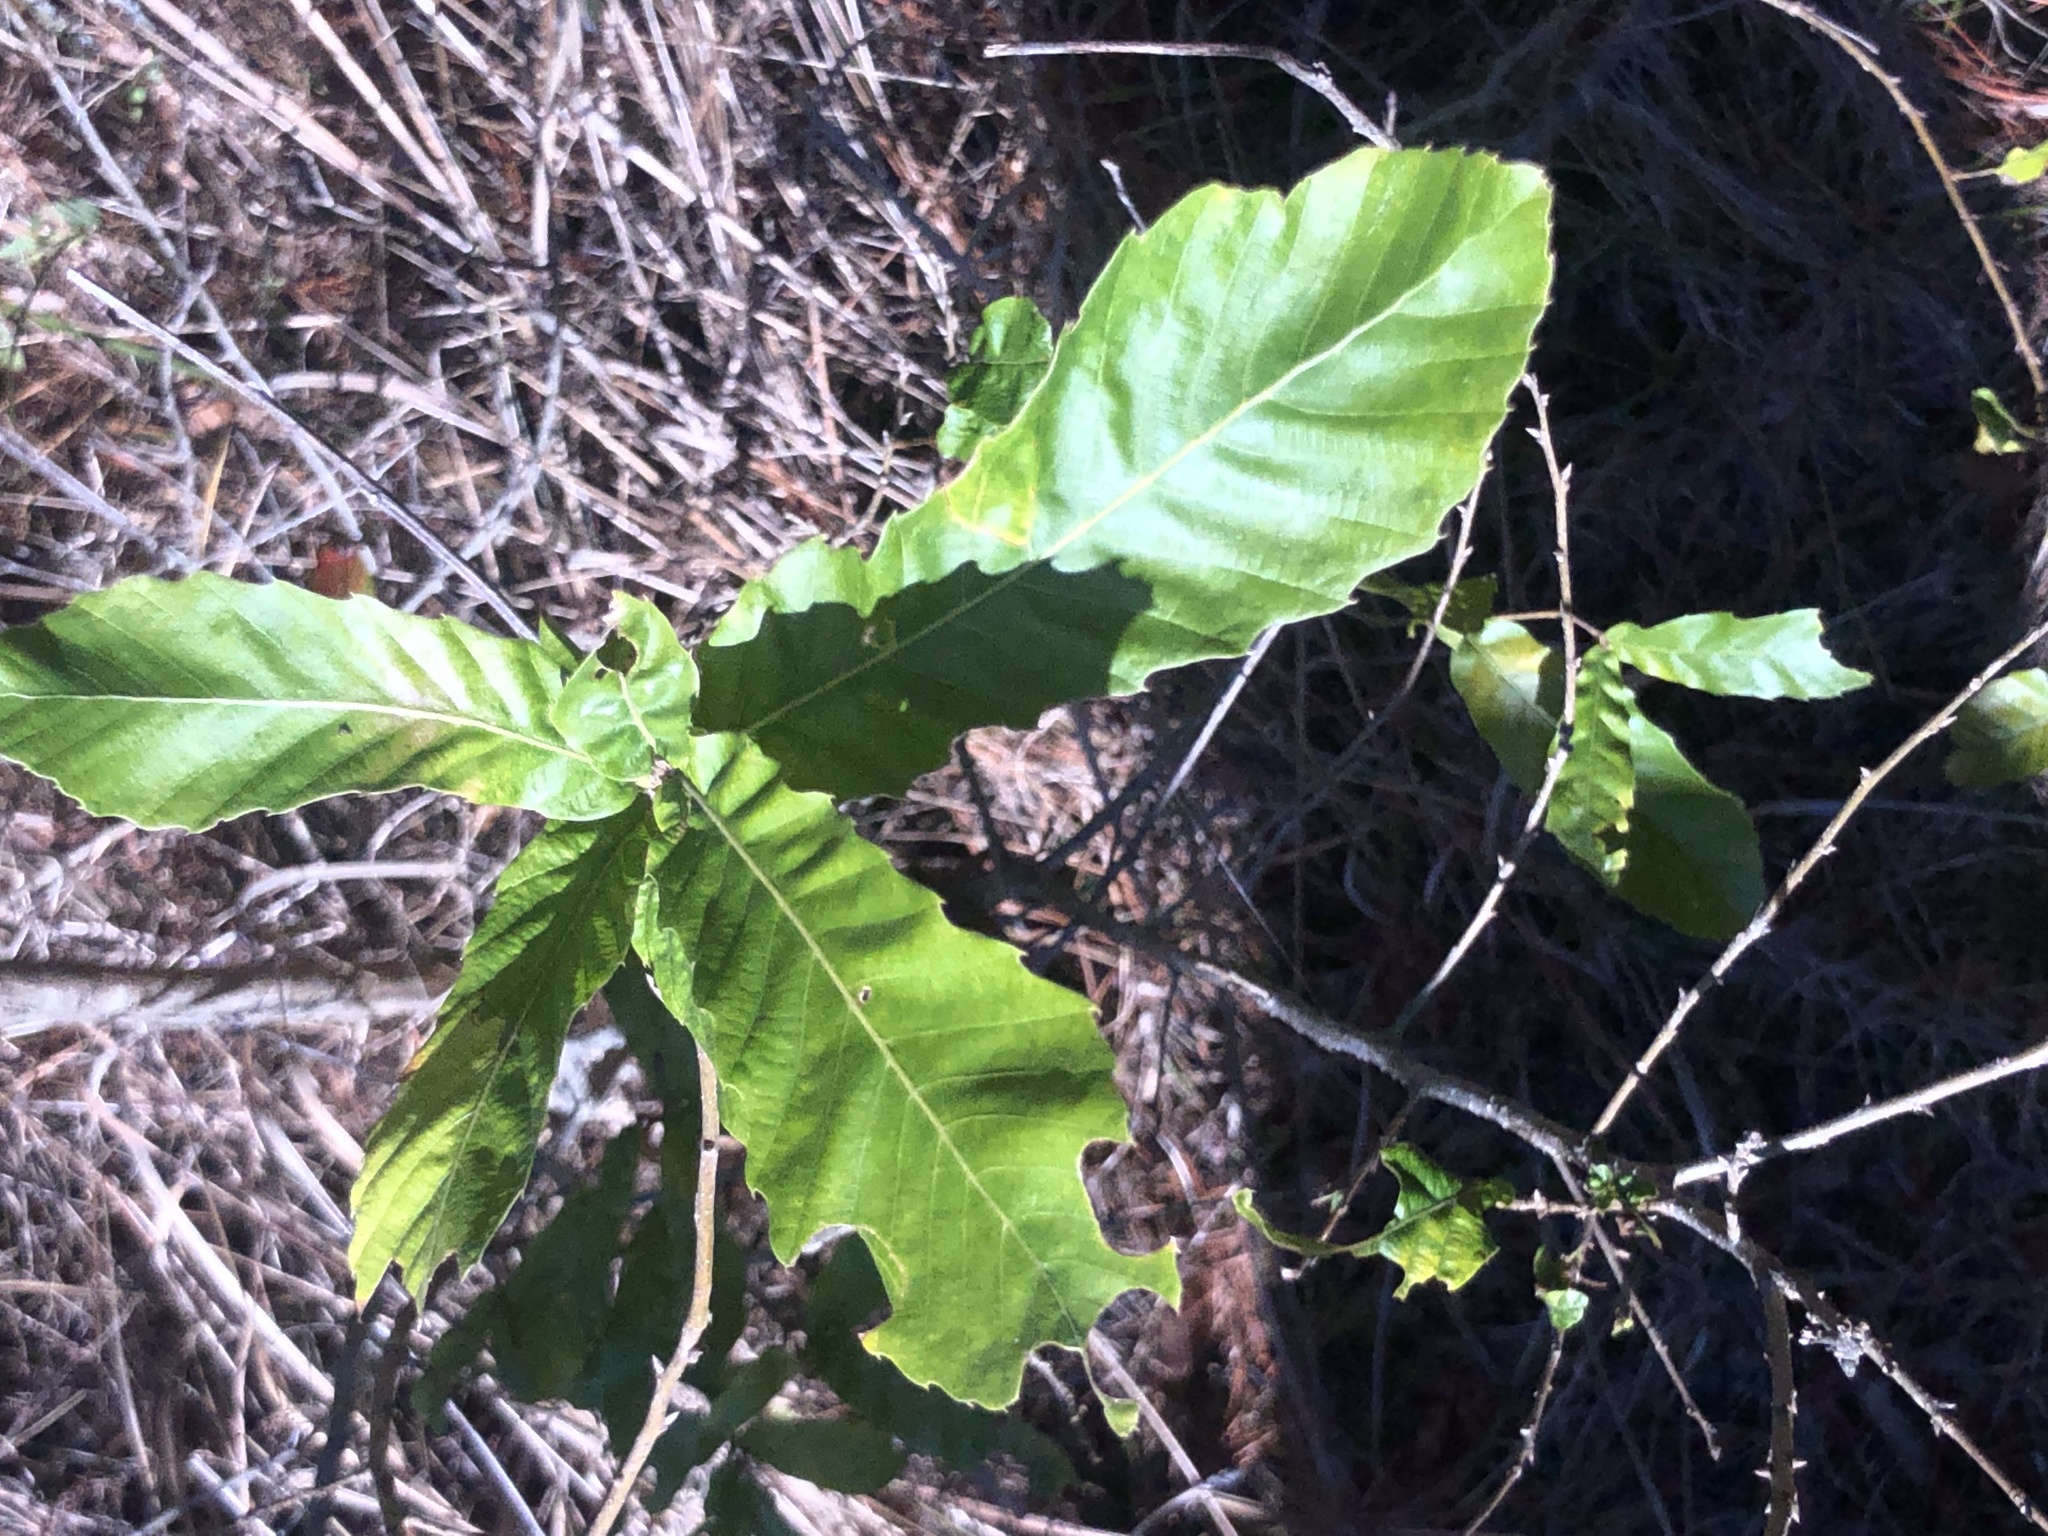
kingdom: Plantae
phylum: Tracheophyta
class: Magnoliopsida
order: Fagales
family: Fagaceae
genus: Quercus
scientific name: Quercus acutissima
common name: Sawtooth oak
